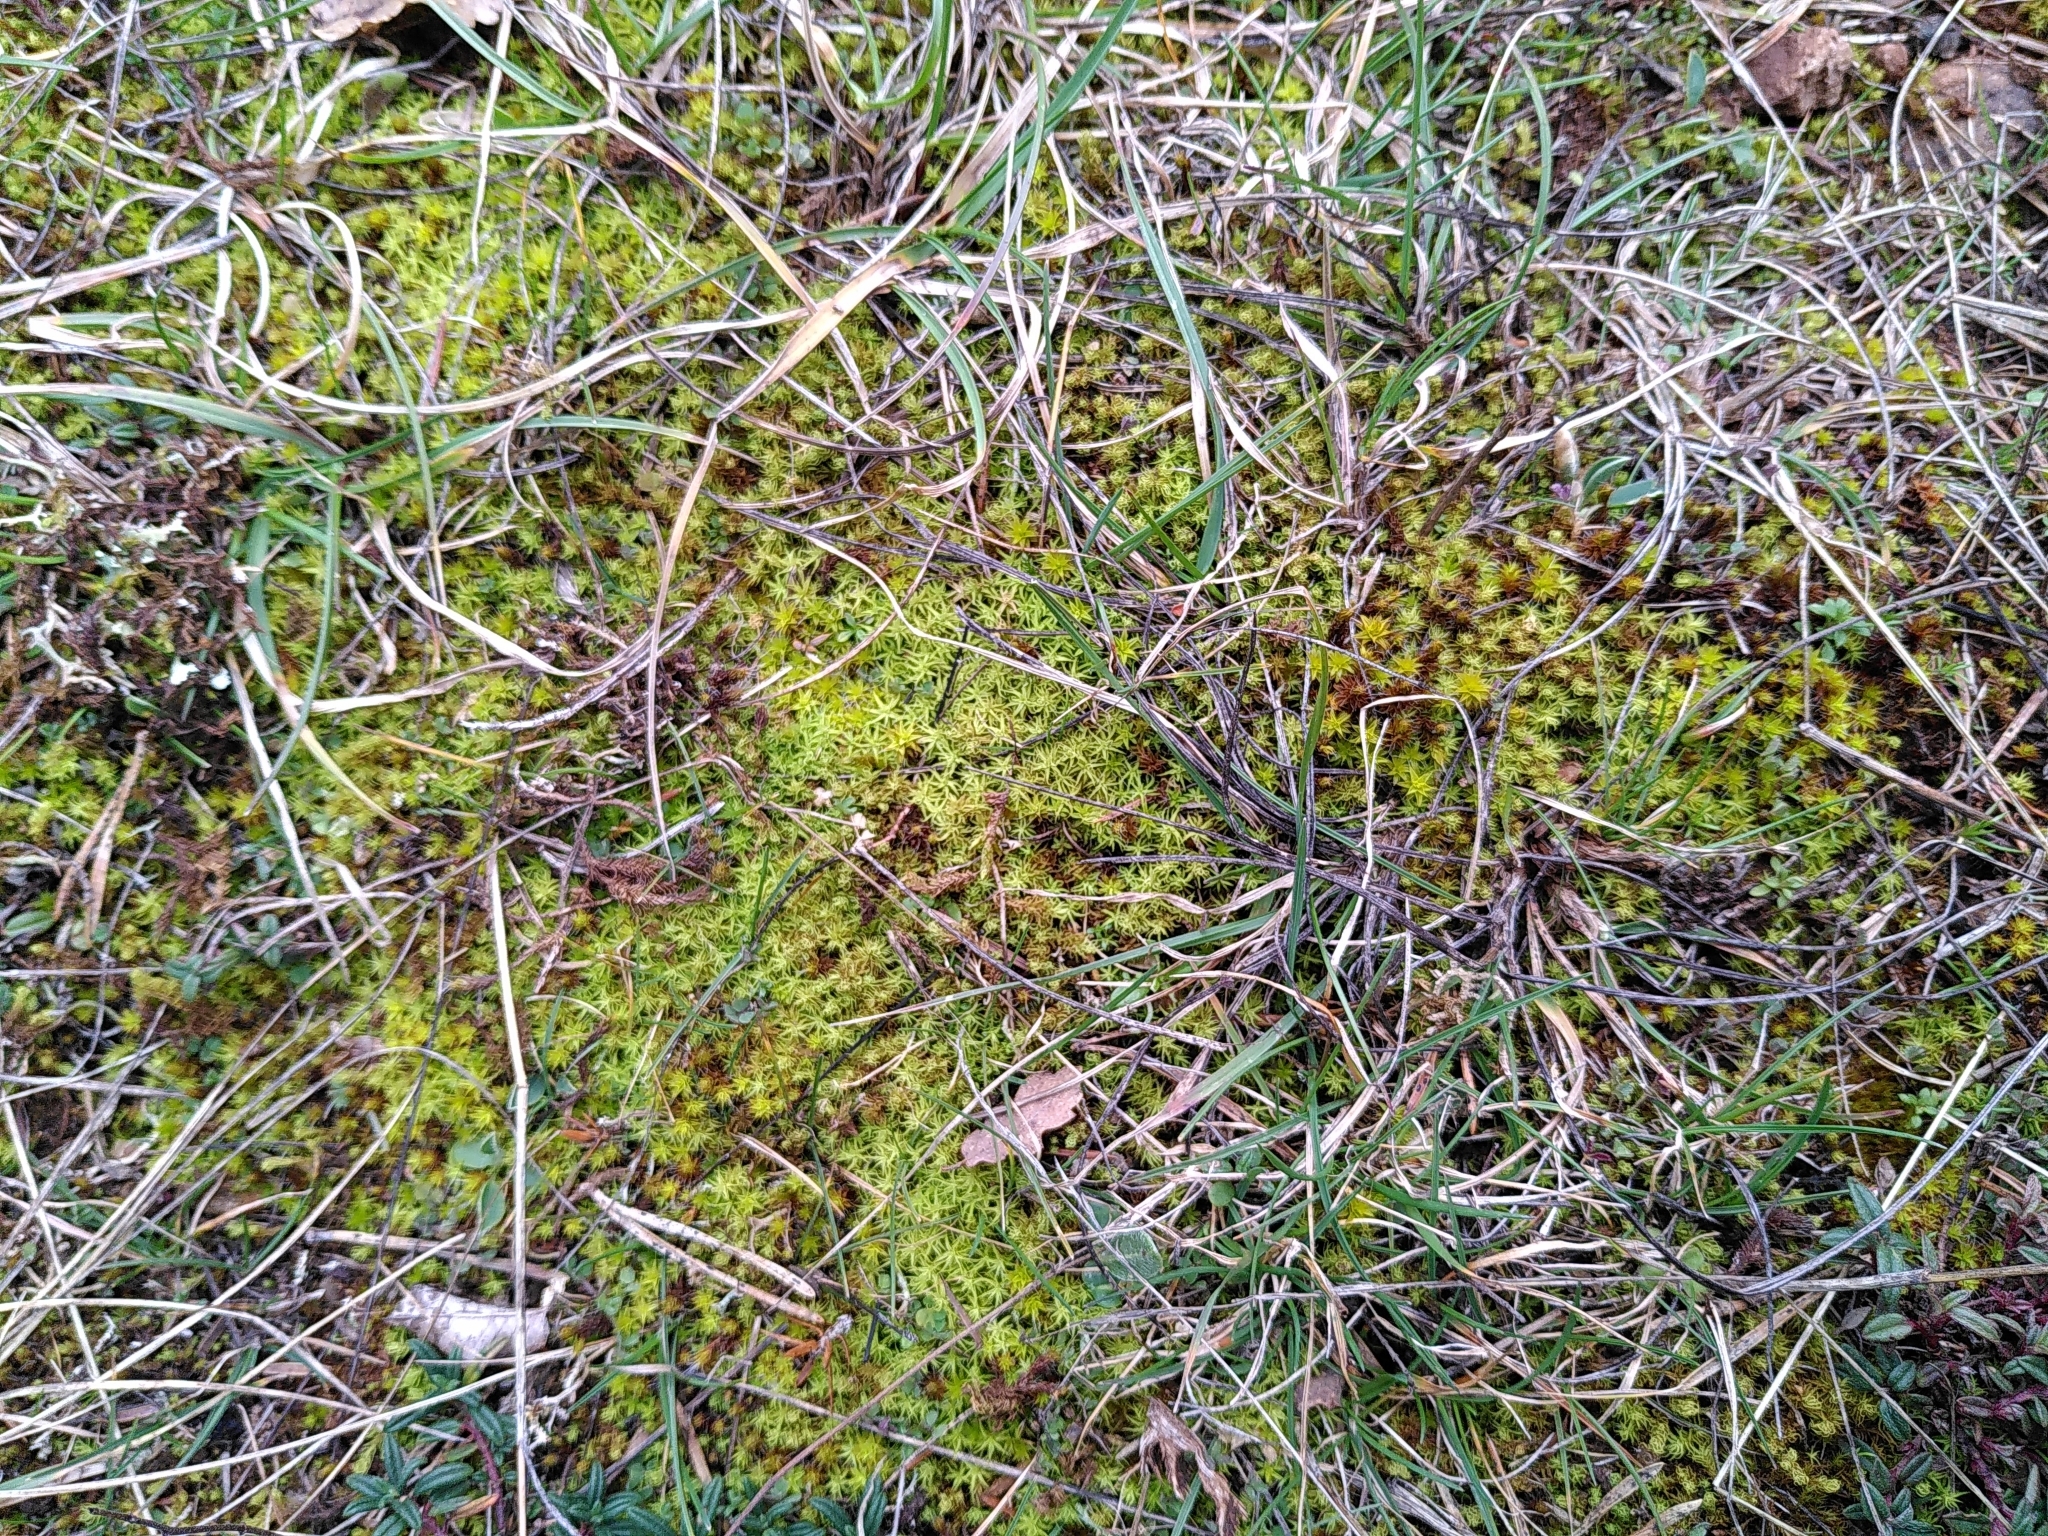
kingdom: Plantae
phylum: Bryophyta
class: Bryopsida
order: Pottiales
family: Pottiaceae
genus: Pleurochaete
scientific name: Pleurochaete squarrosa
